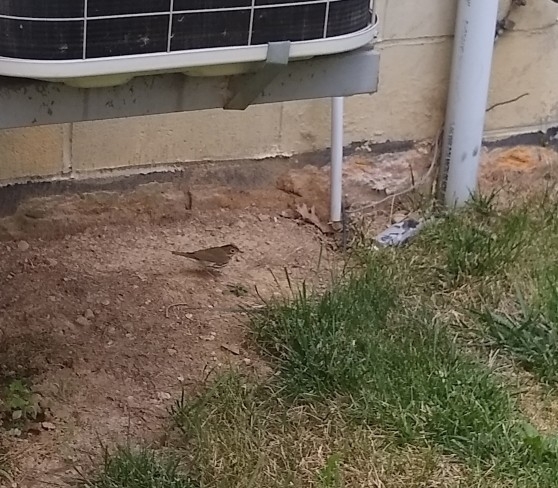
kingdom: Animalia
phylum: Chordata
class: Aves
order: Passeriformes
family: Parulidae
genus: Seiurus
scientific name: Seiurus aurocapilla
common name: Ovenbird
